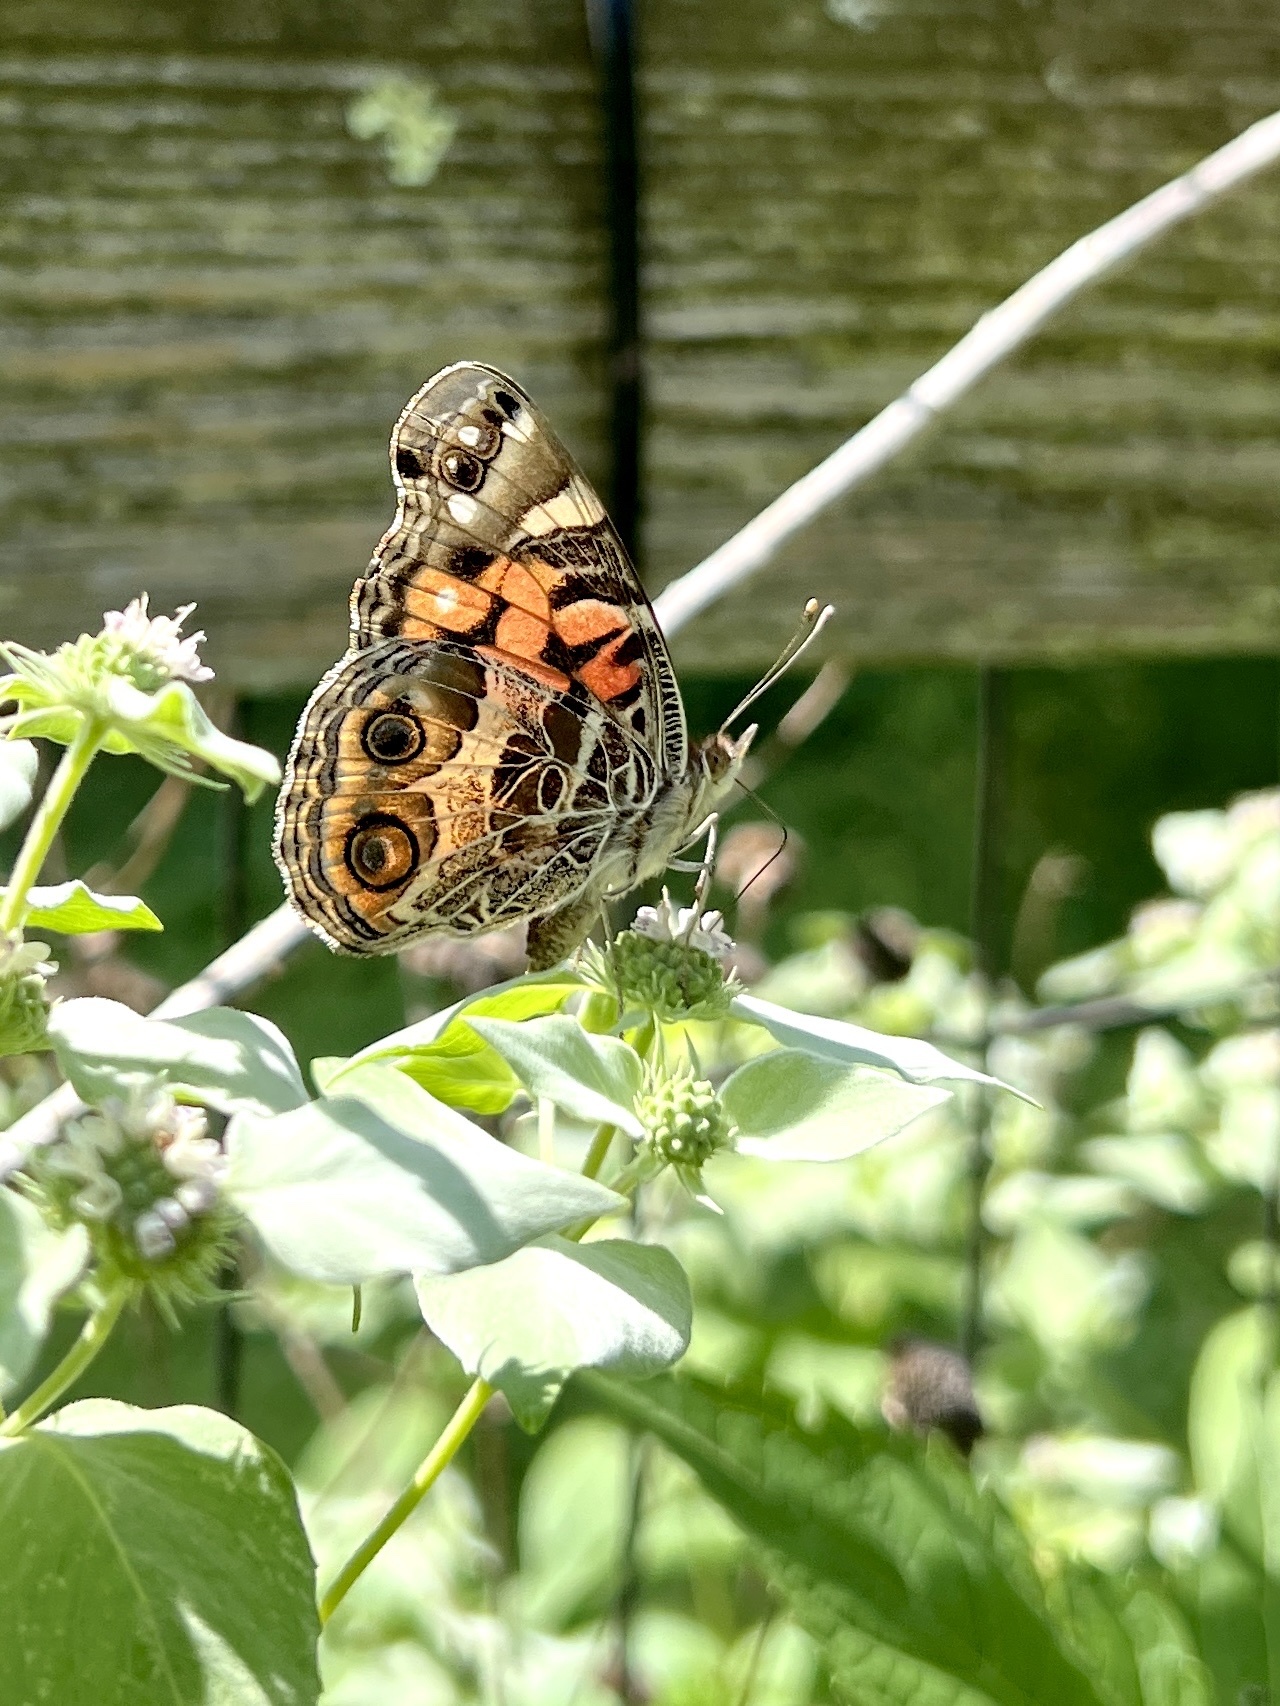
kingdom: Animalia
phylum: Arthropoda
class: Insecta
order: Lepidoptera
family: Nymphalidae
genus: Vanessa
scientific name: Vanessa virginiensis
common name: American lady
